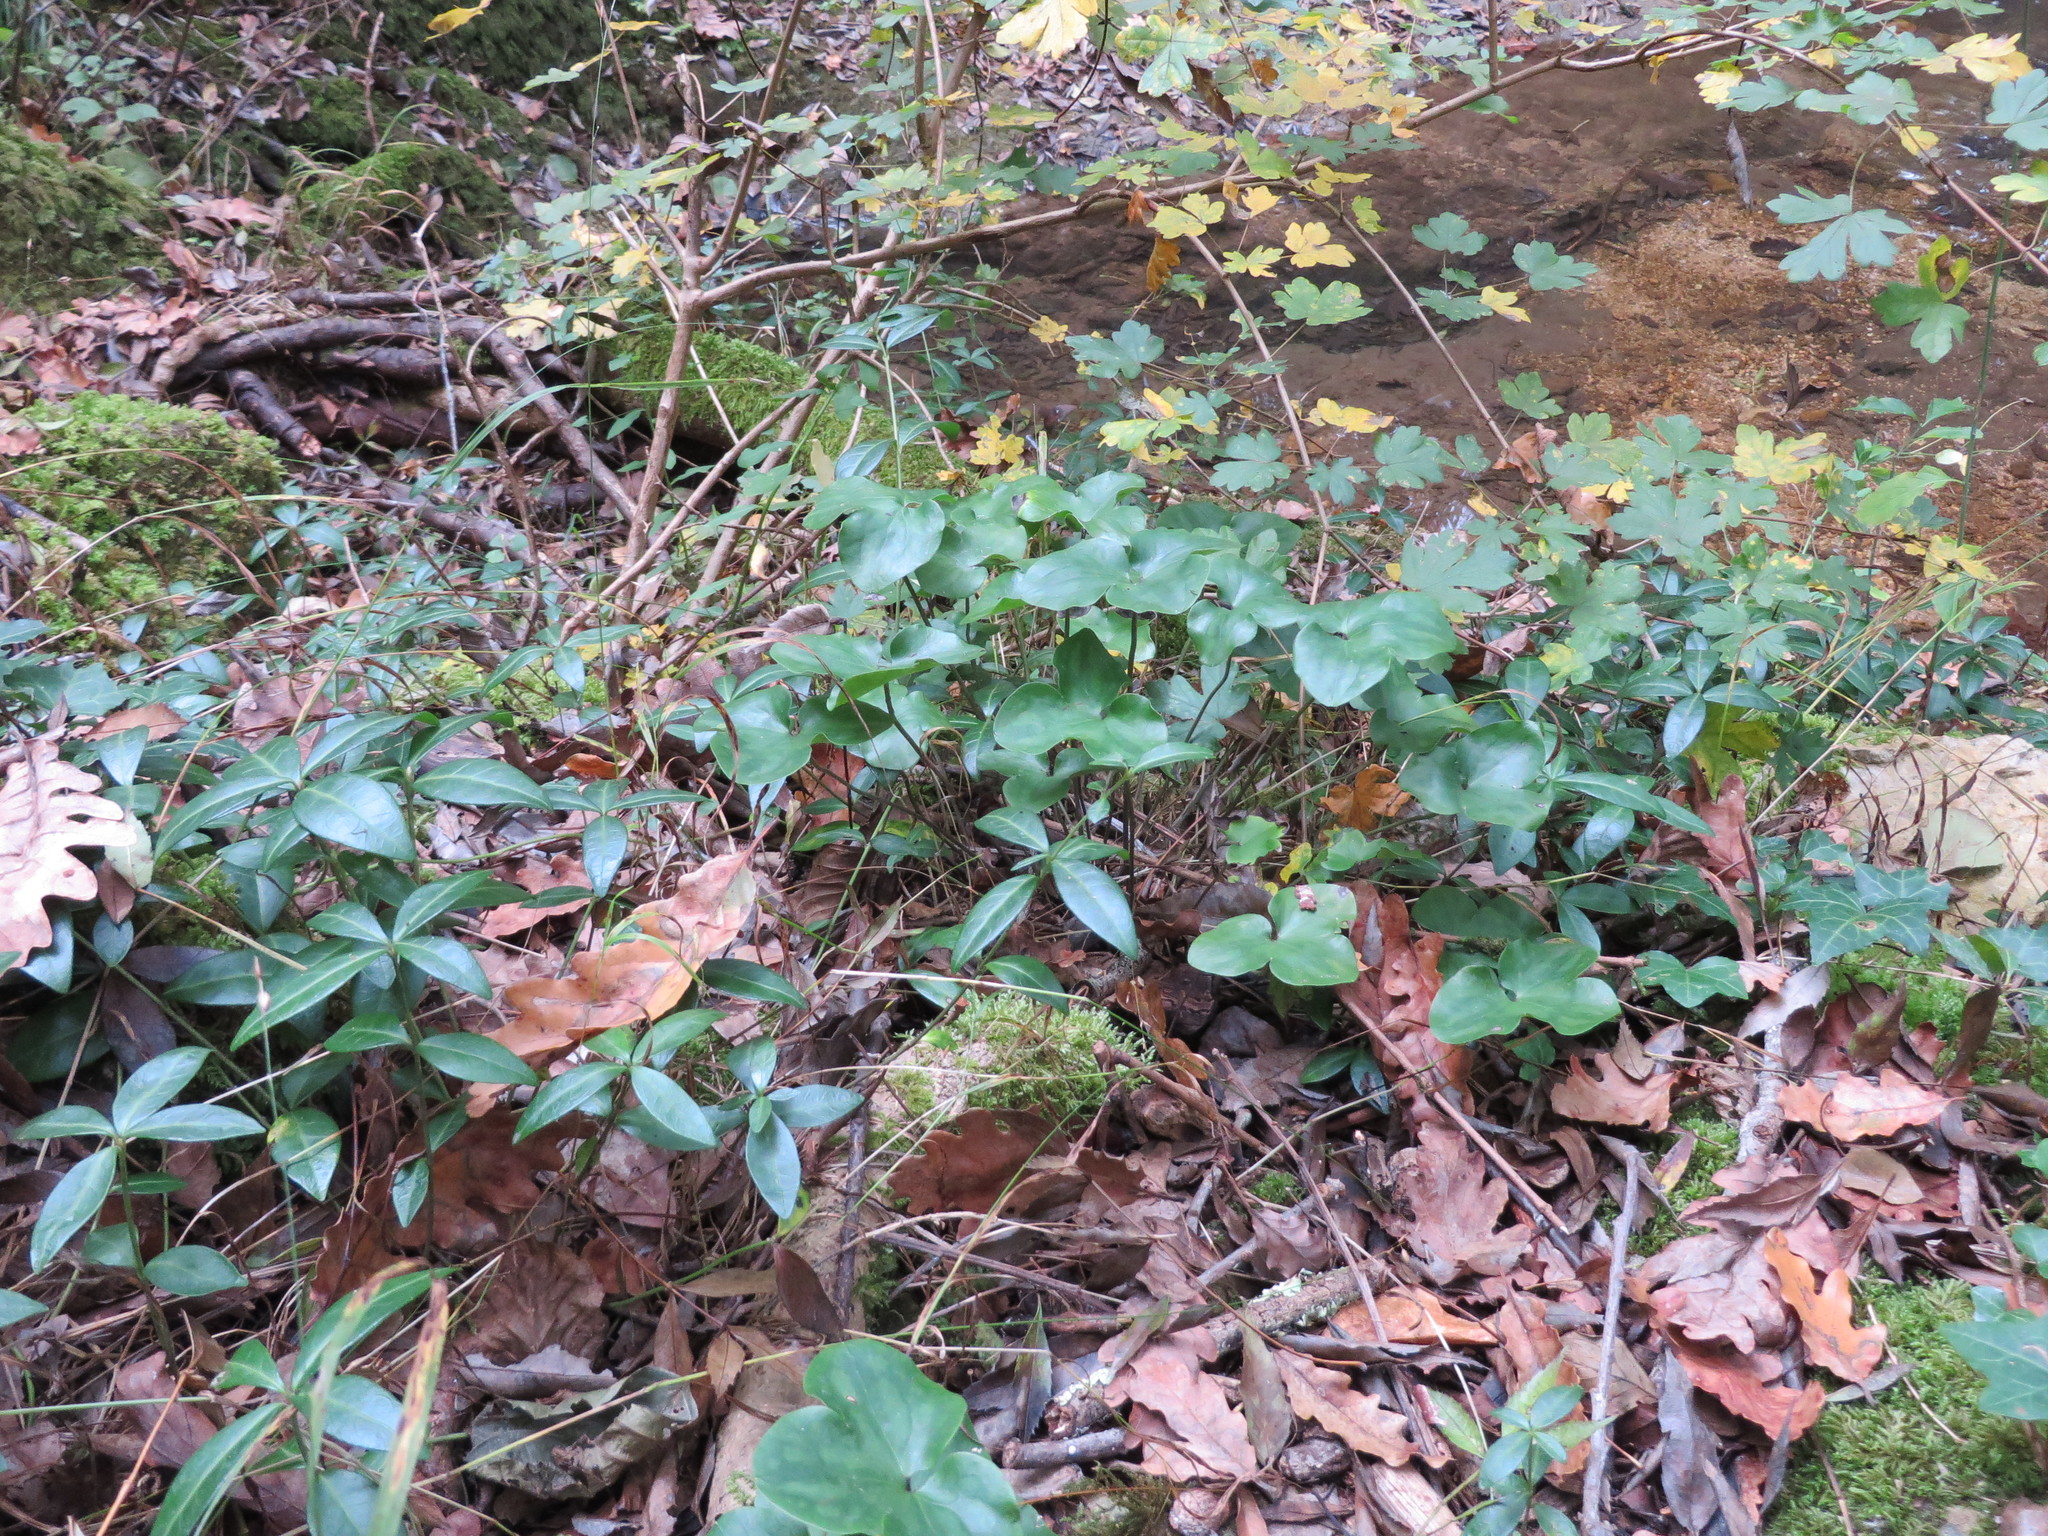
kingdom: Plantae
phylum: Tracheophyta
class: Magnoliopsida
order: Ranunculales
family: Ranunculaceae
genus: Hepatica
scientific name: Hepatica nobilis
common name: Liverleaf
